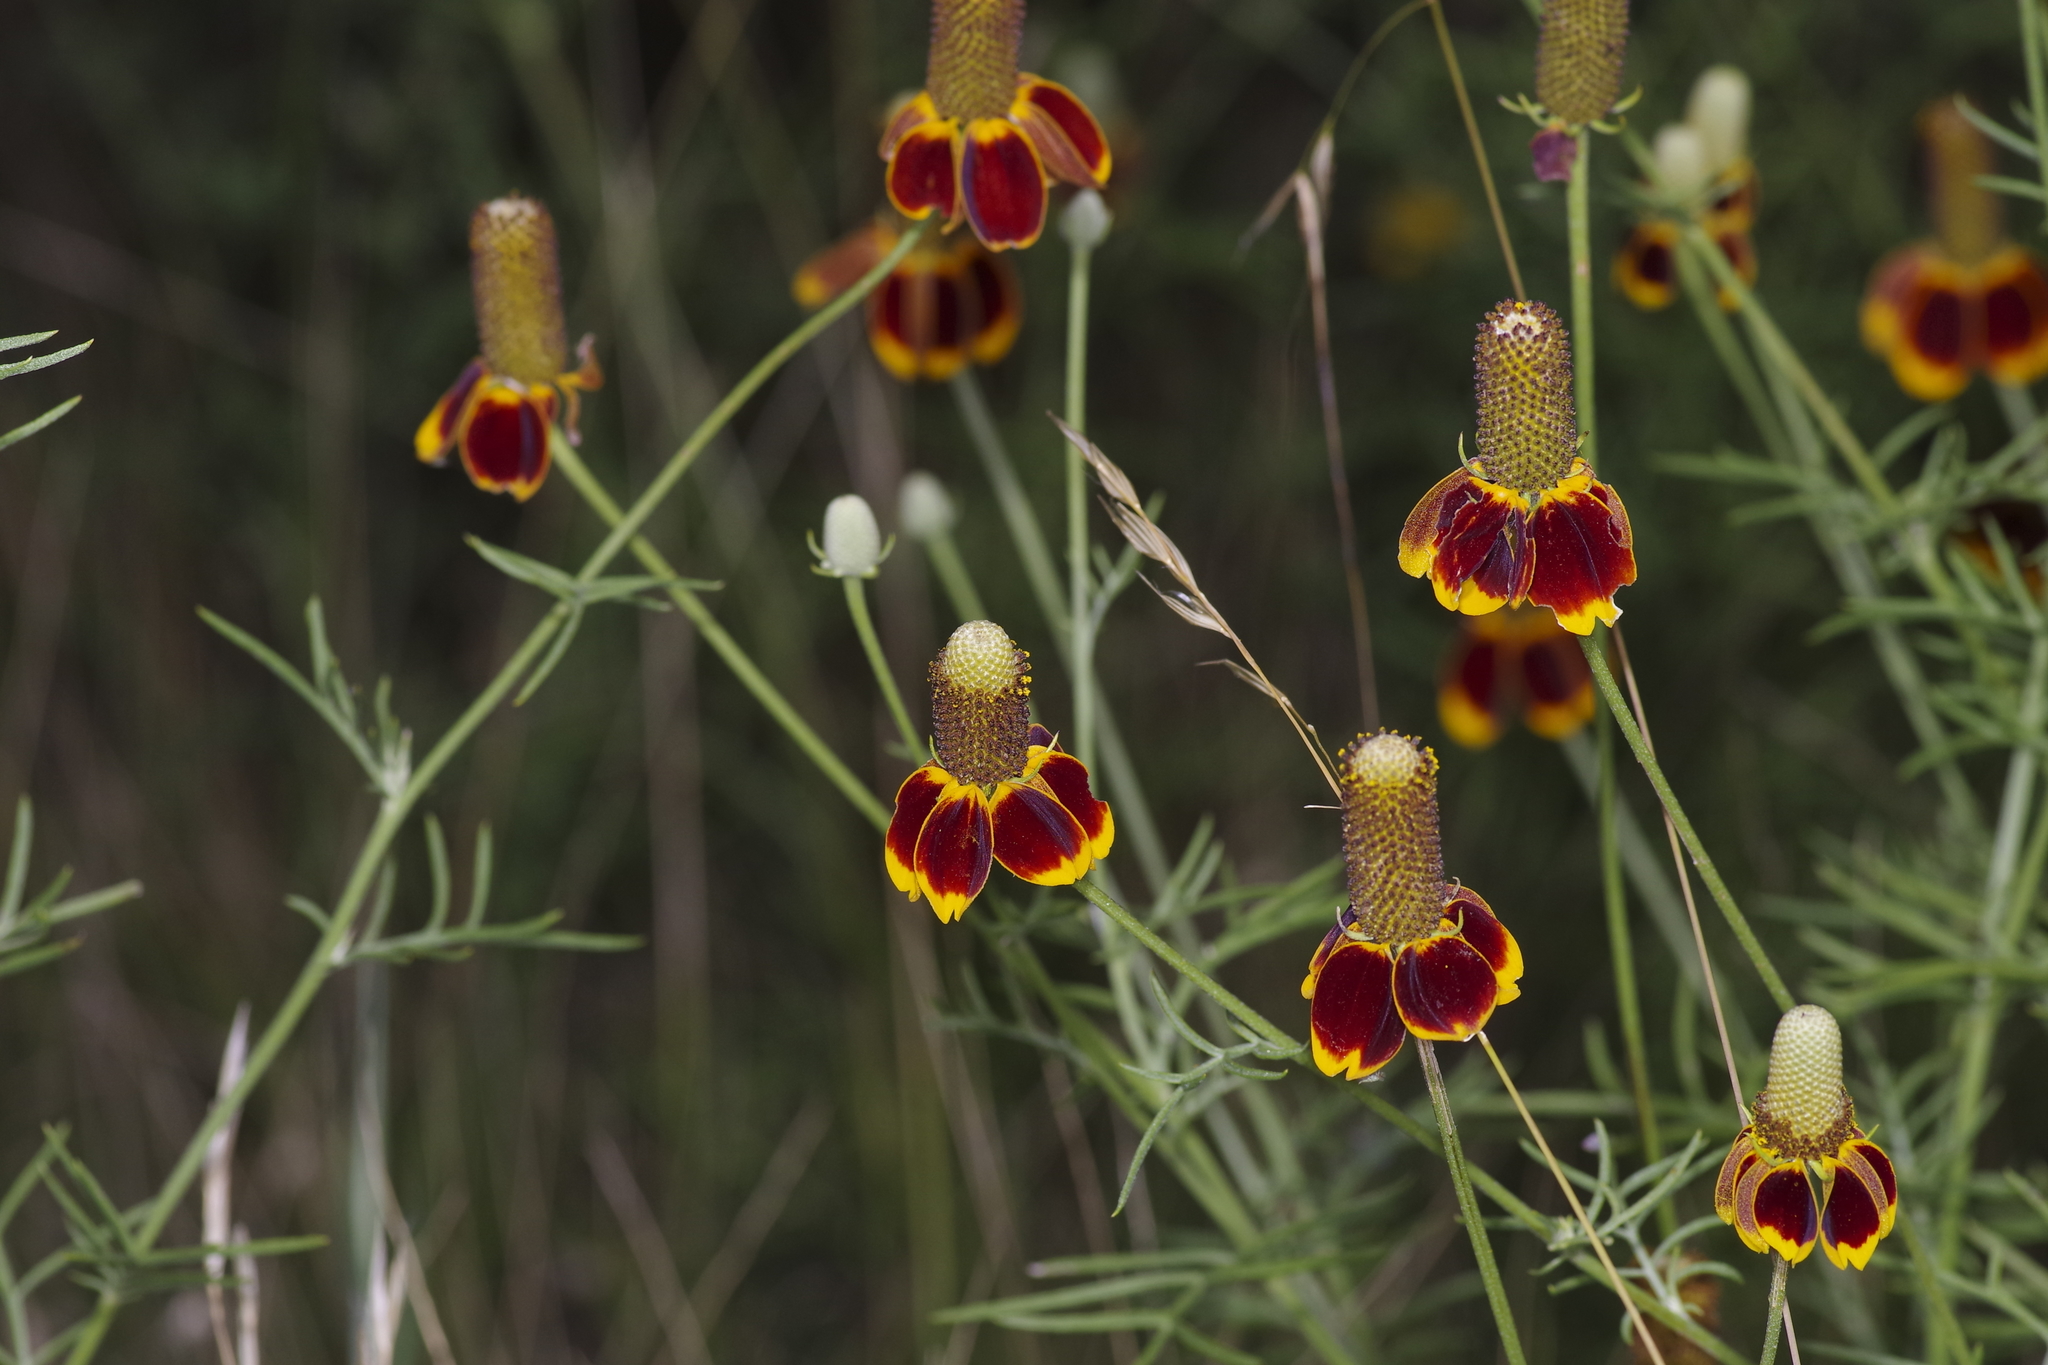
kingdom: Plantae
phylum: Tracheophyta
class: Magnoliopsida
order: Asterales
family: Asteraceae
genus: Ratibida
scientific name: Ratibida columnifera
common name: Prairie coneflower
